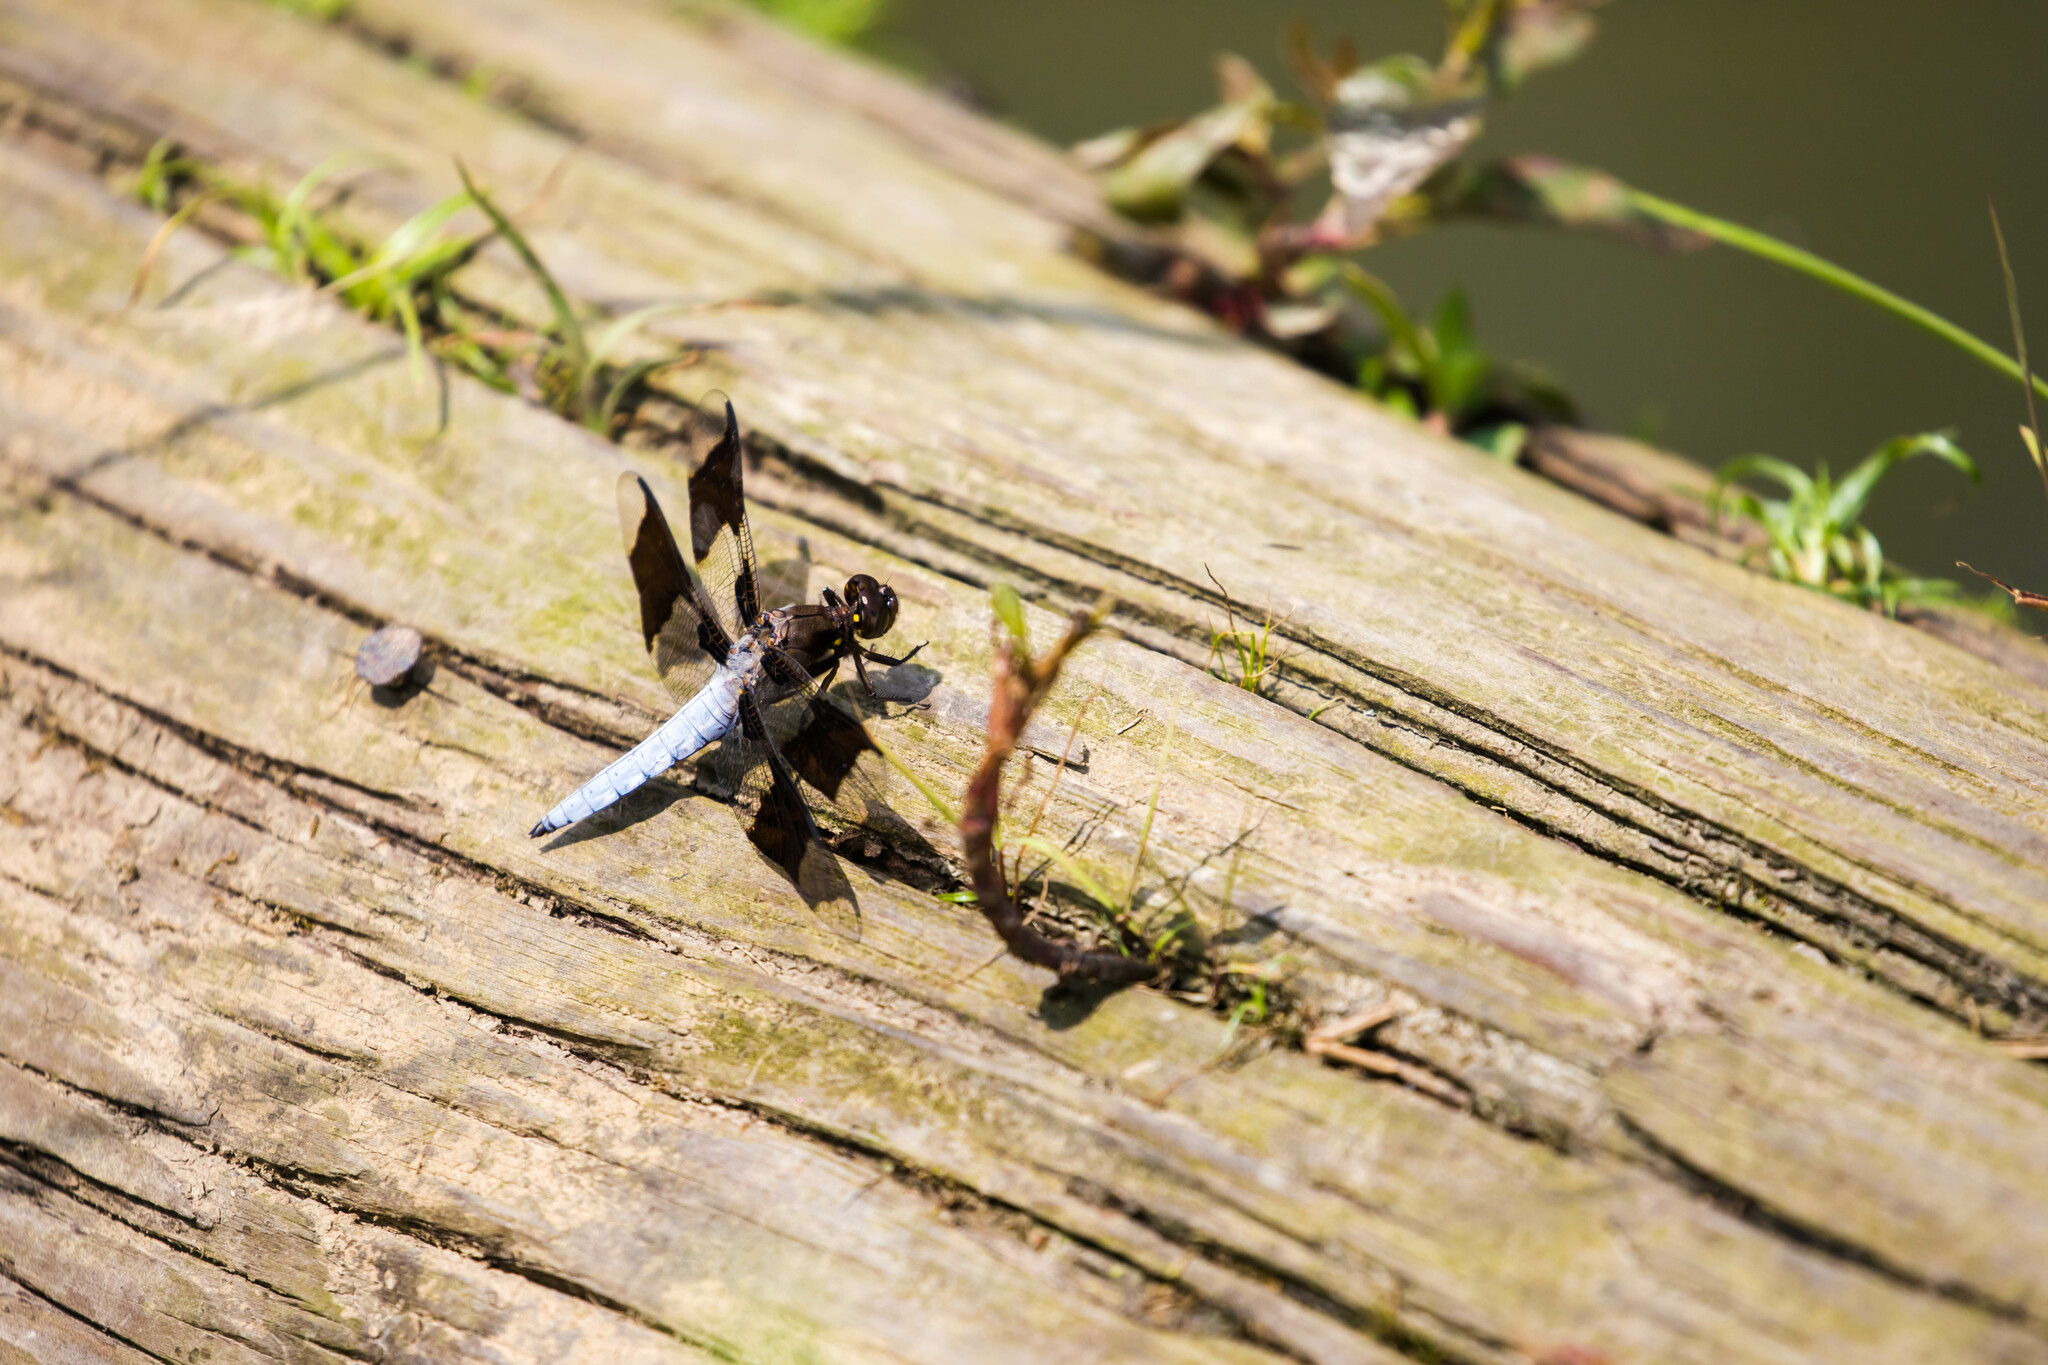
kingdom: Animalia
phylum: Arthropoda
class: Insecta
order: Odonata
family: Libellulidae
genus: Plathemis
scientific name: Plathemis lydia
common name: Common whitetail
